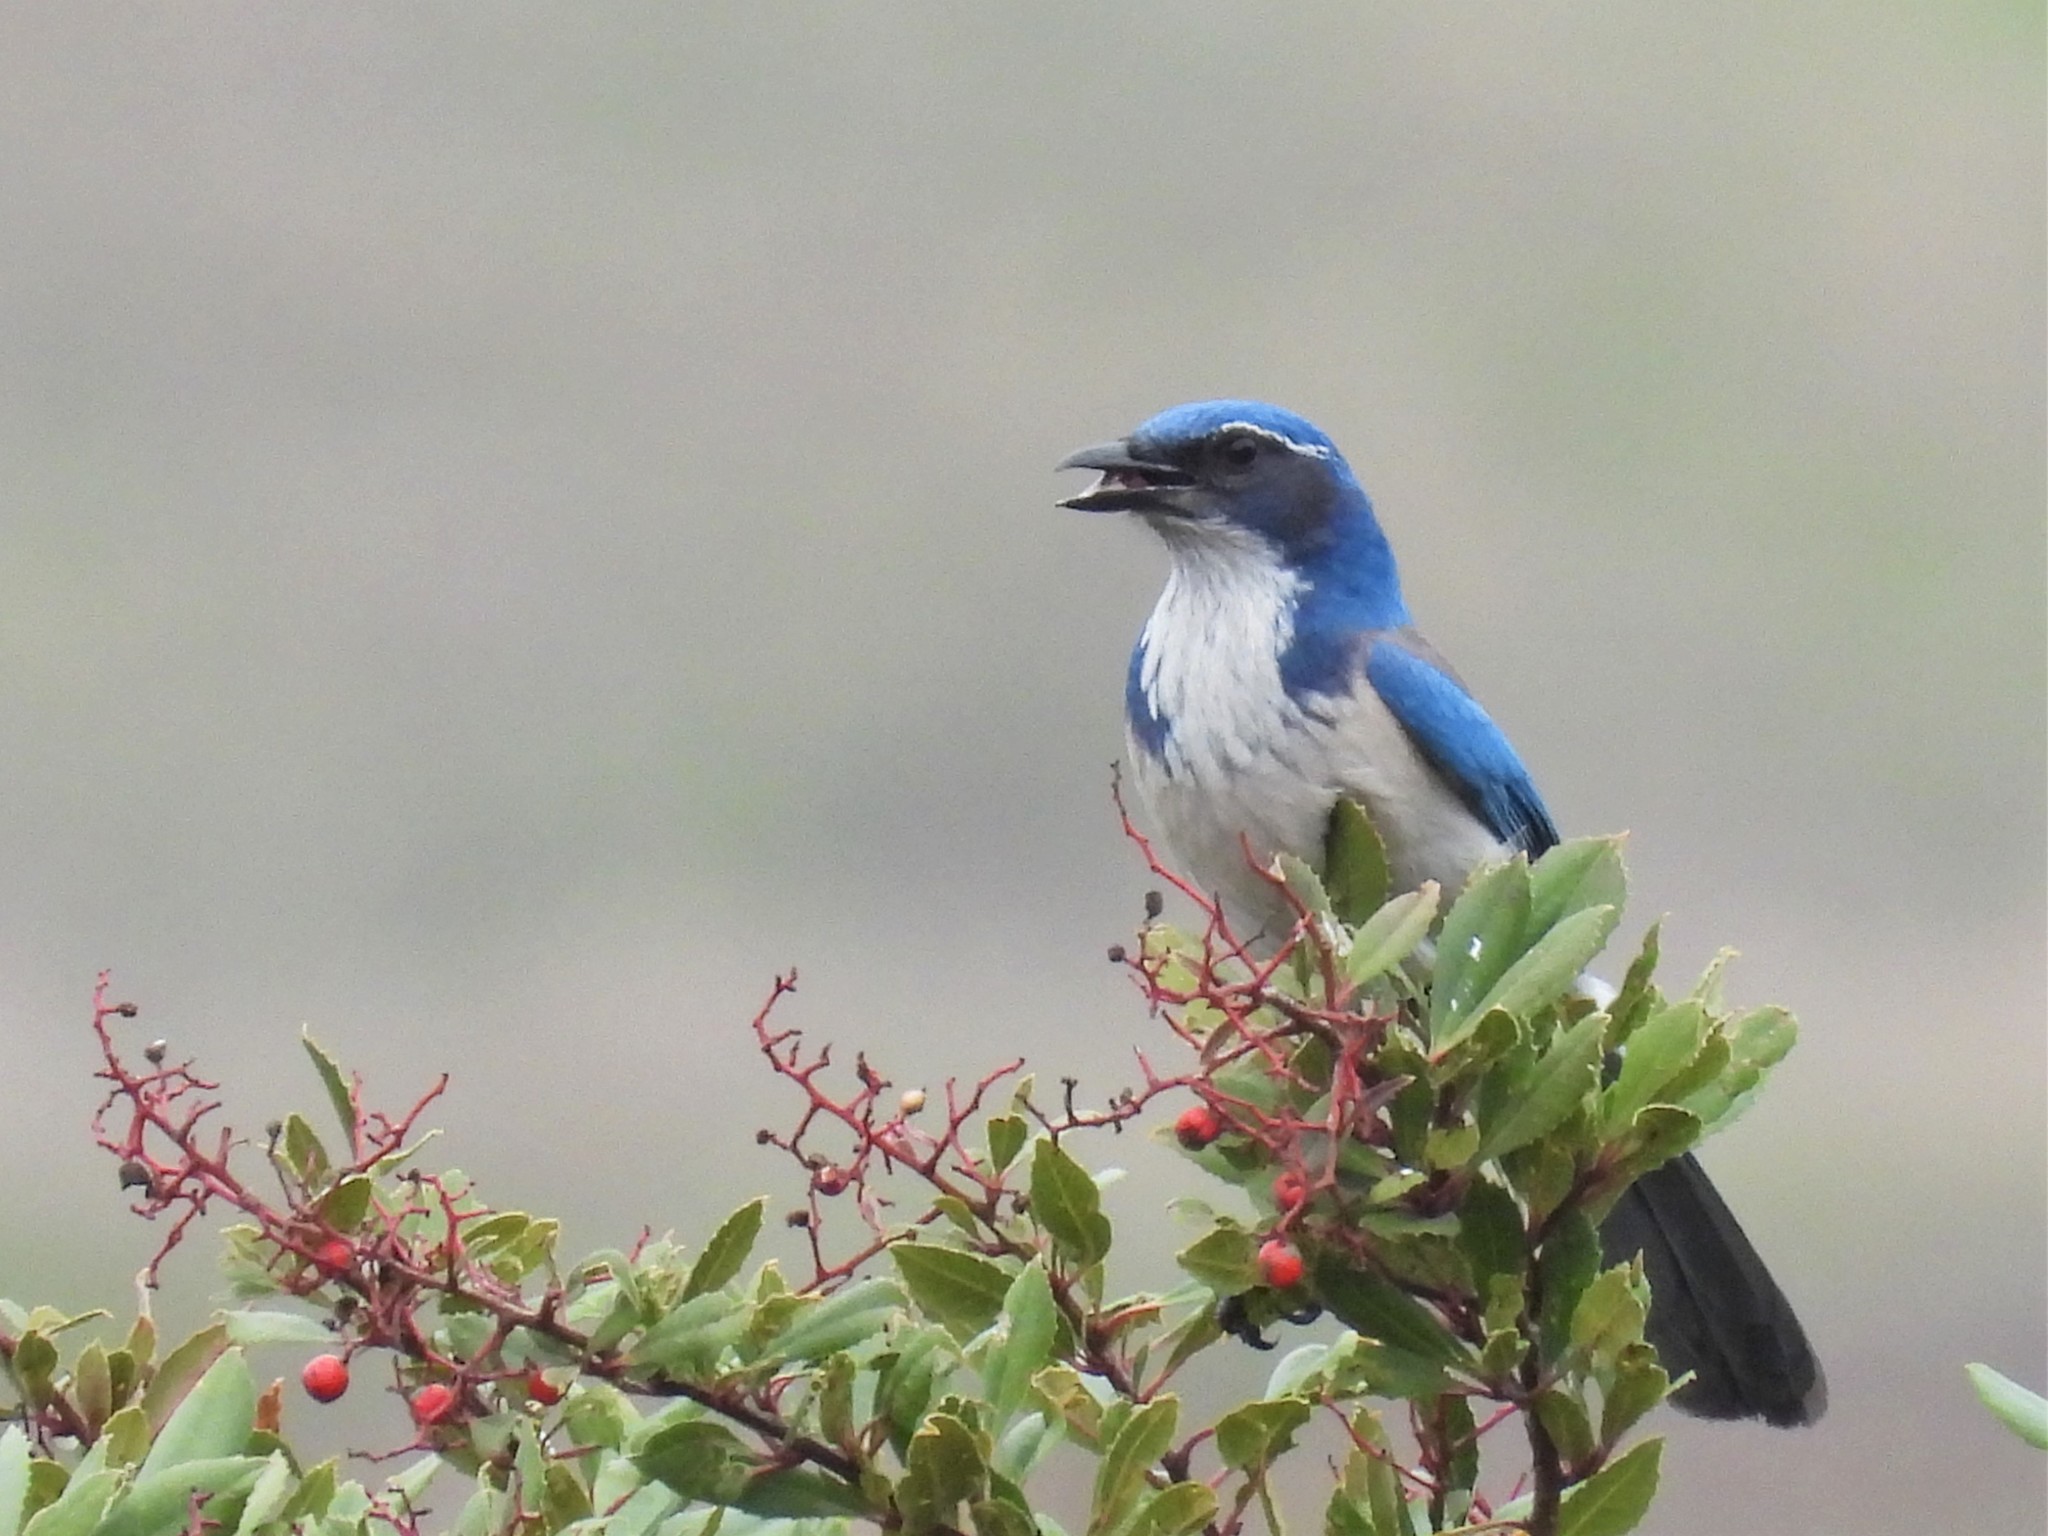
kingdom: Animalia
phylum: Chordata
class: Aves
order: Passeriformes
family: Corvidae
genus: Aphelocoma
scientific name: Aphelocoma californica
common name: California scrub-jay
